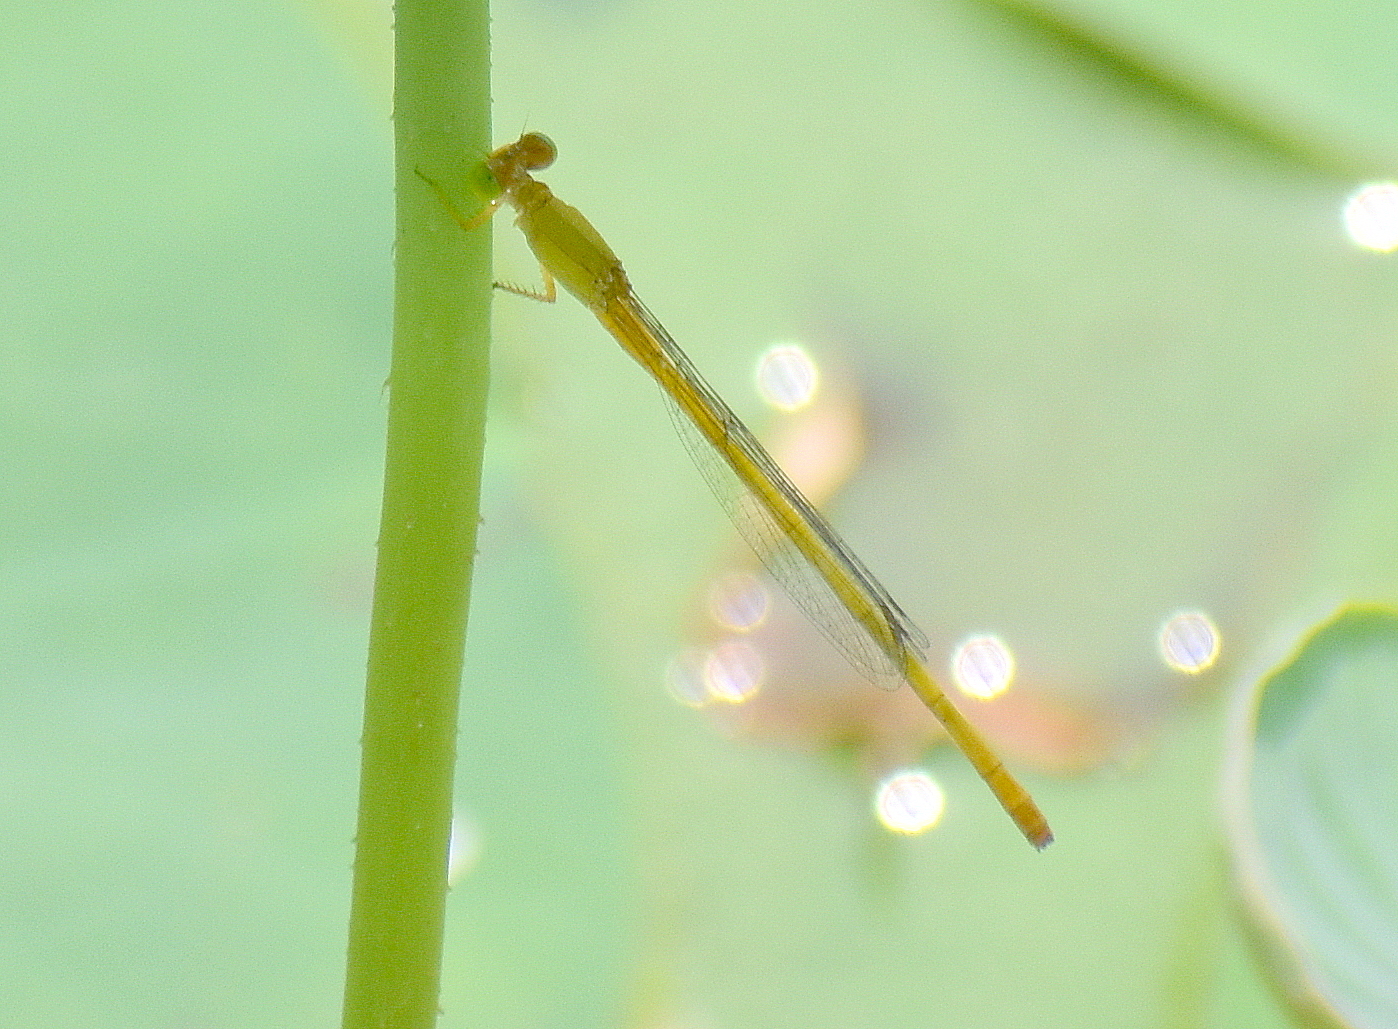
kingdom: Animalia
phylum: Arthropoda
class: Insecta
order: Odonata
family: Coenagrionidae
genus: Ceriagrion
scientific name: Ceriagrion coromandelianum
